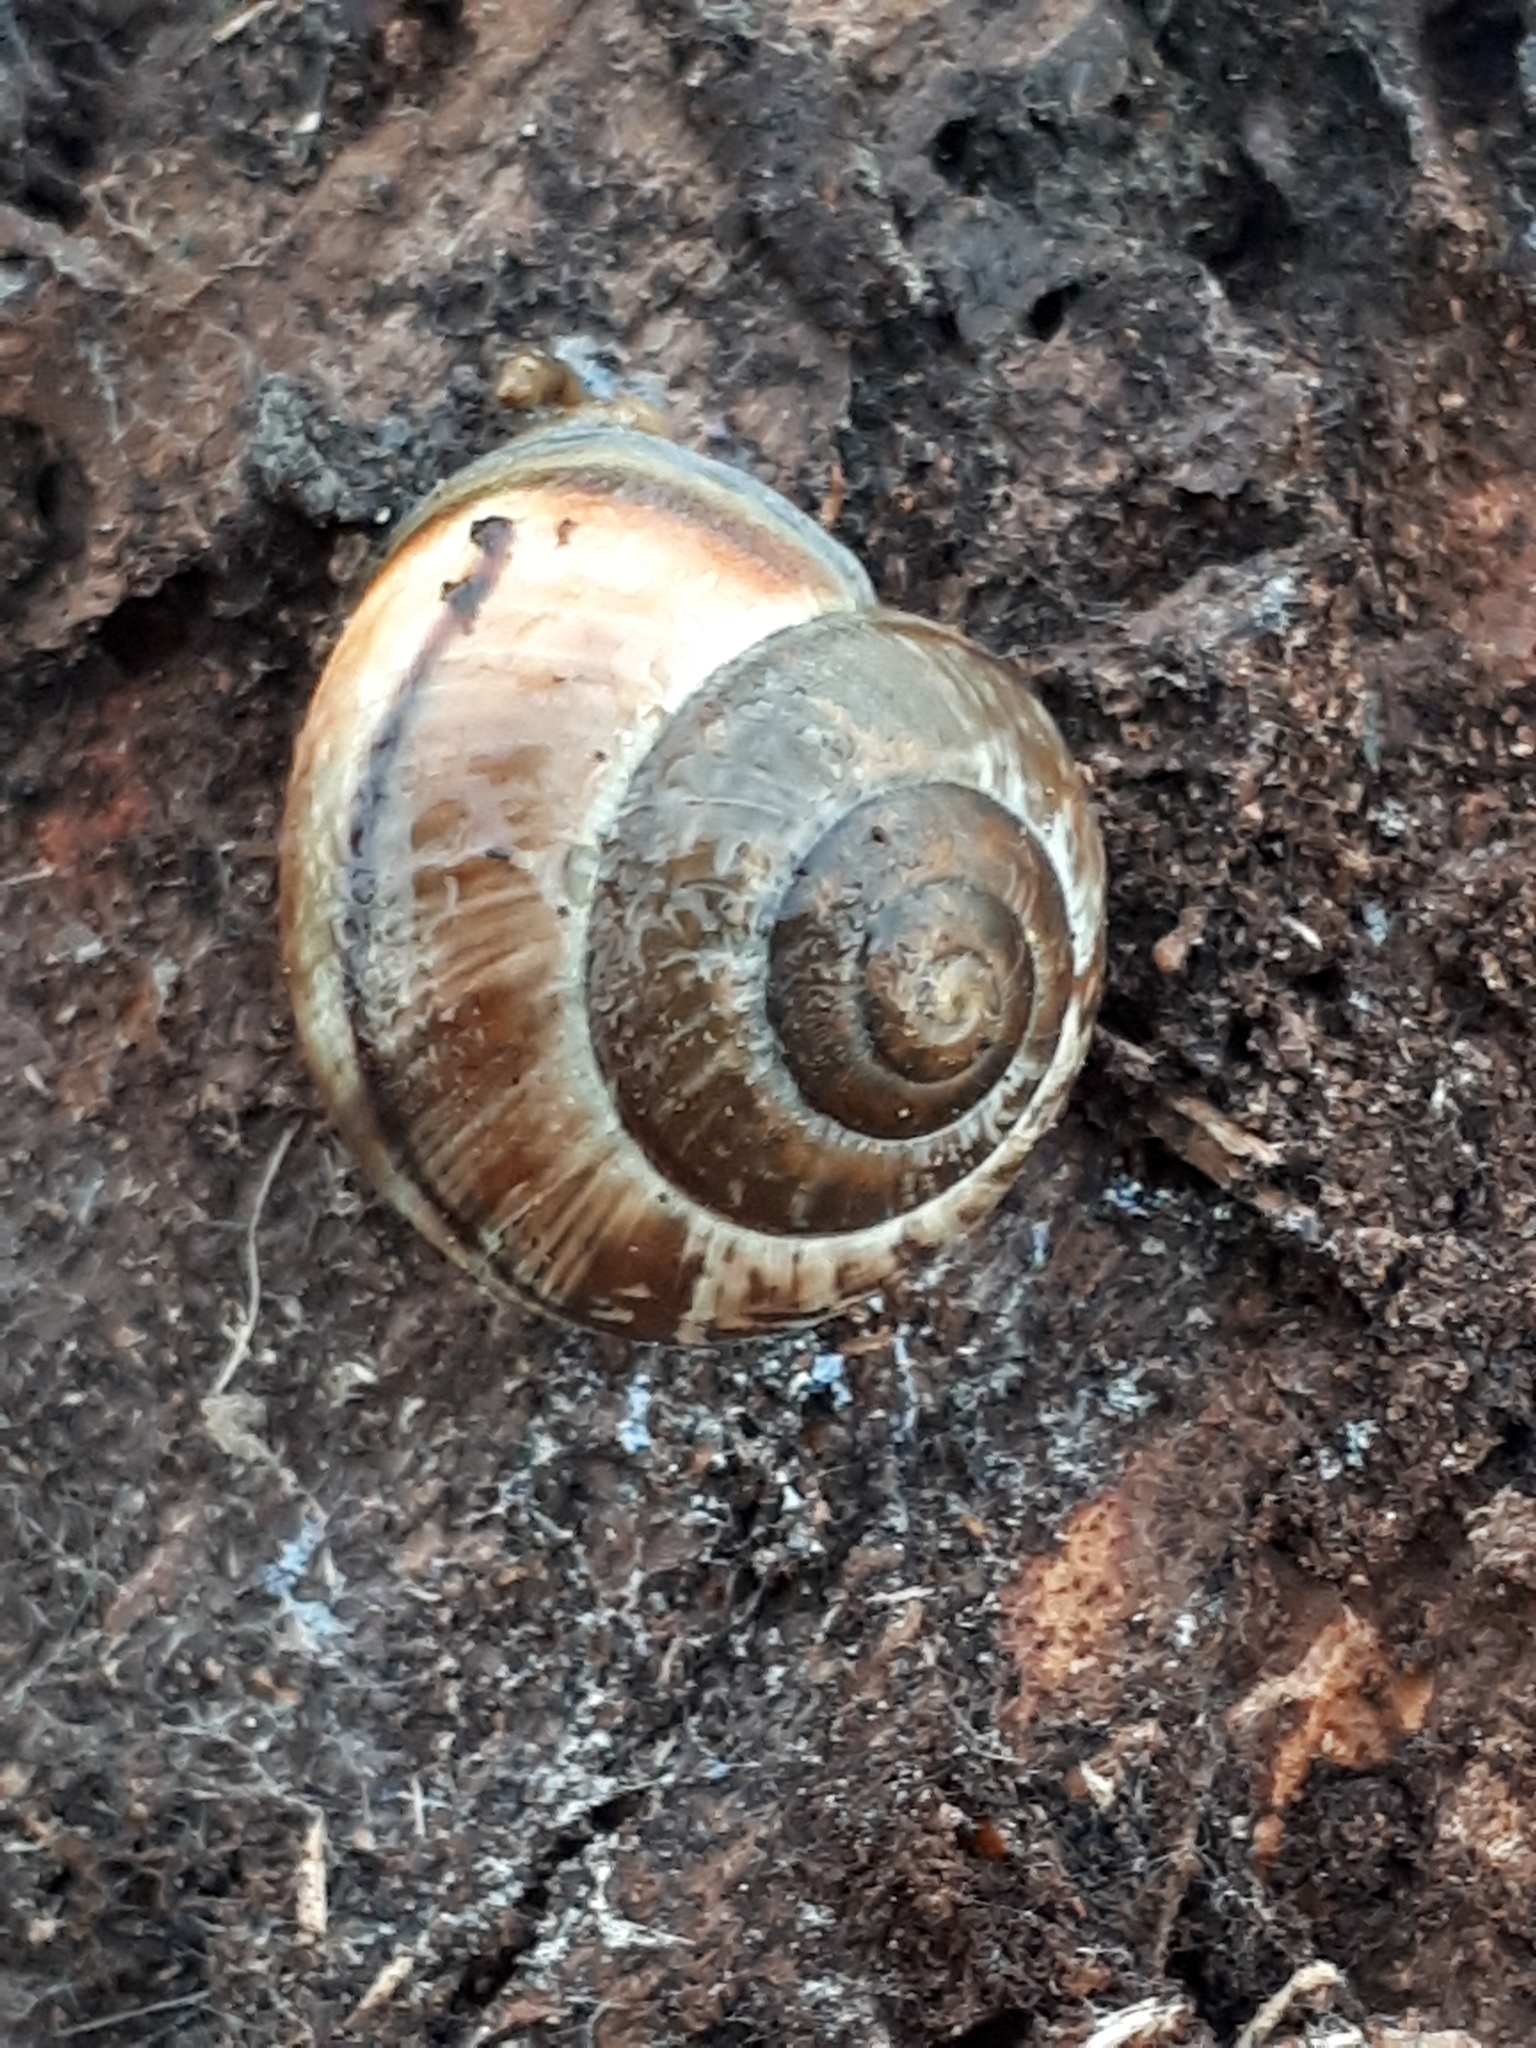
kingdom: Animalia
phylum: Mollusca
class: Gastropoda
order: Stylommatophora
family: Helicidae
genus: Arianta
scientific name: Arianta arbustorum
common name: Copse snail
